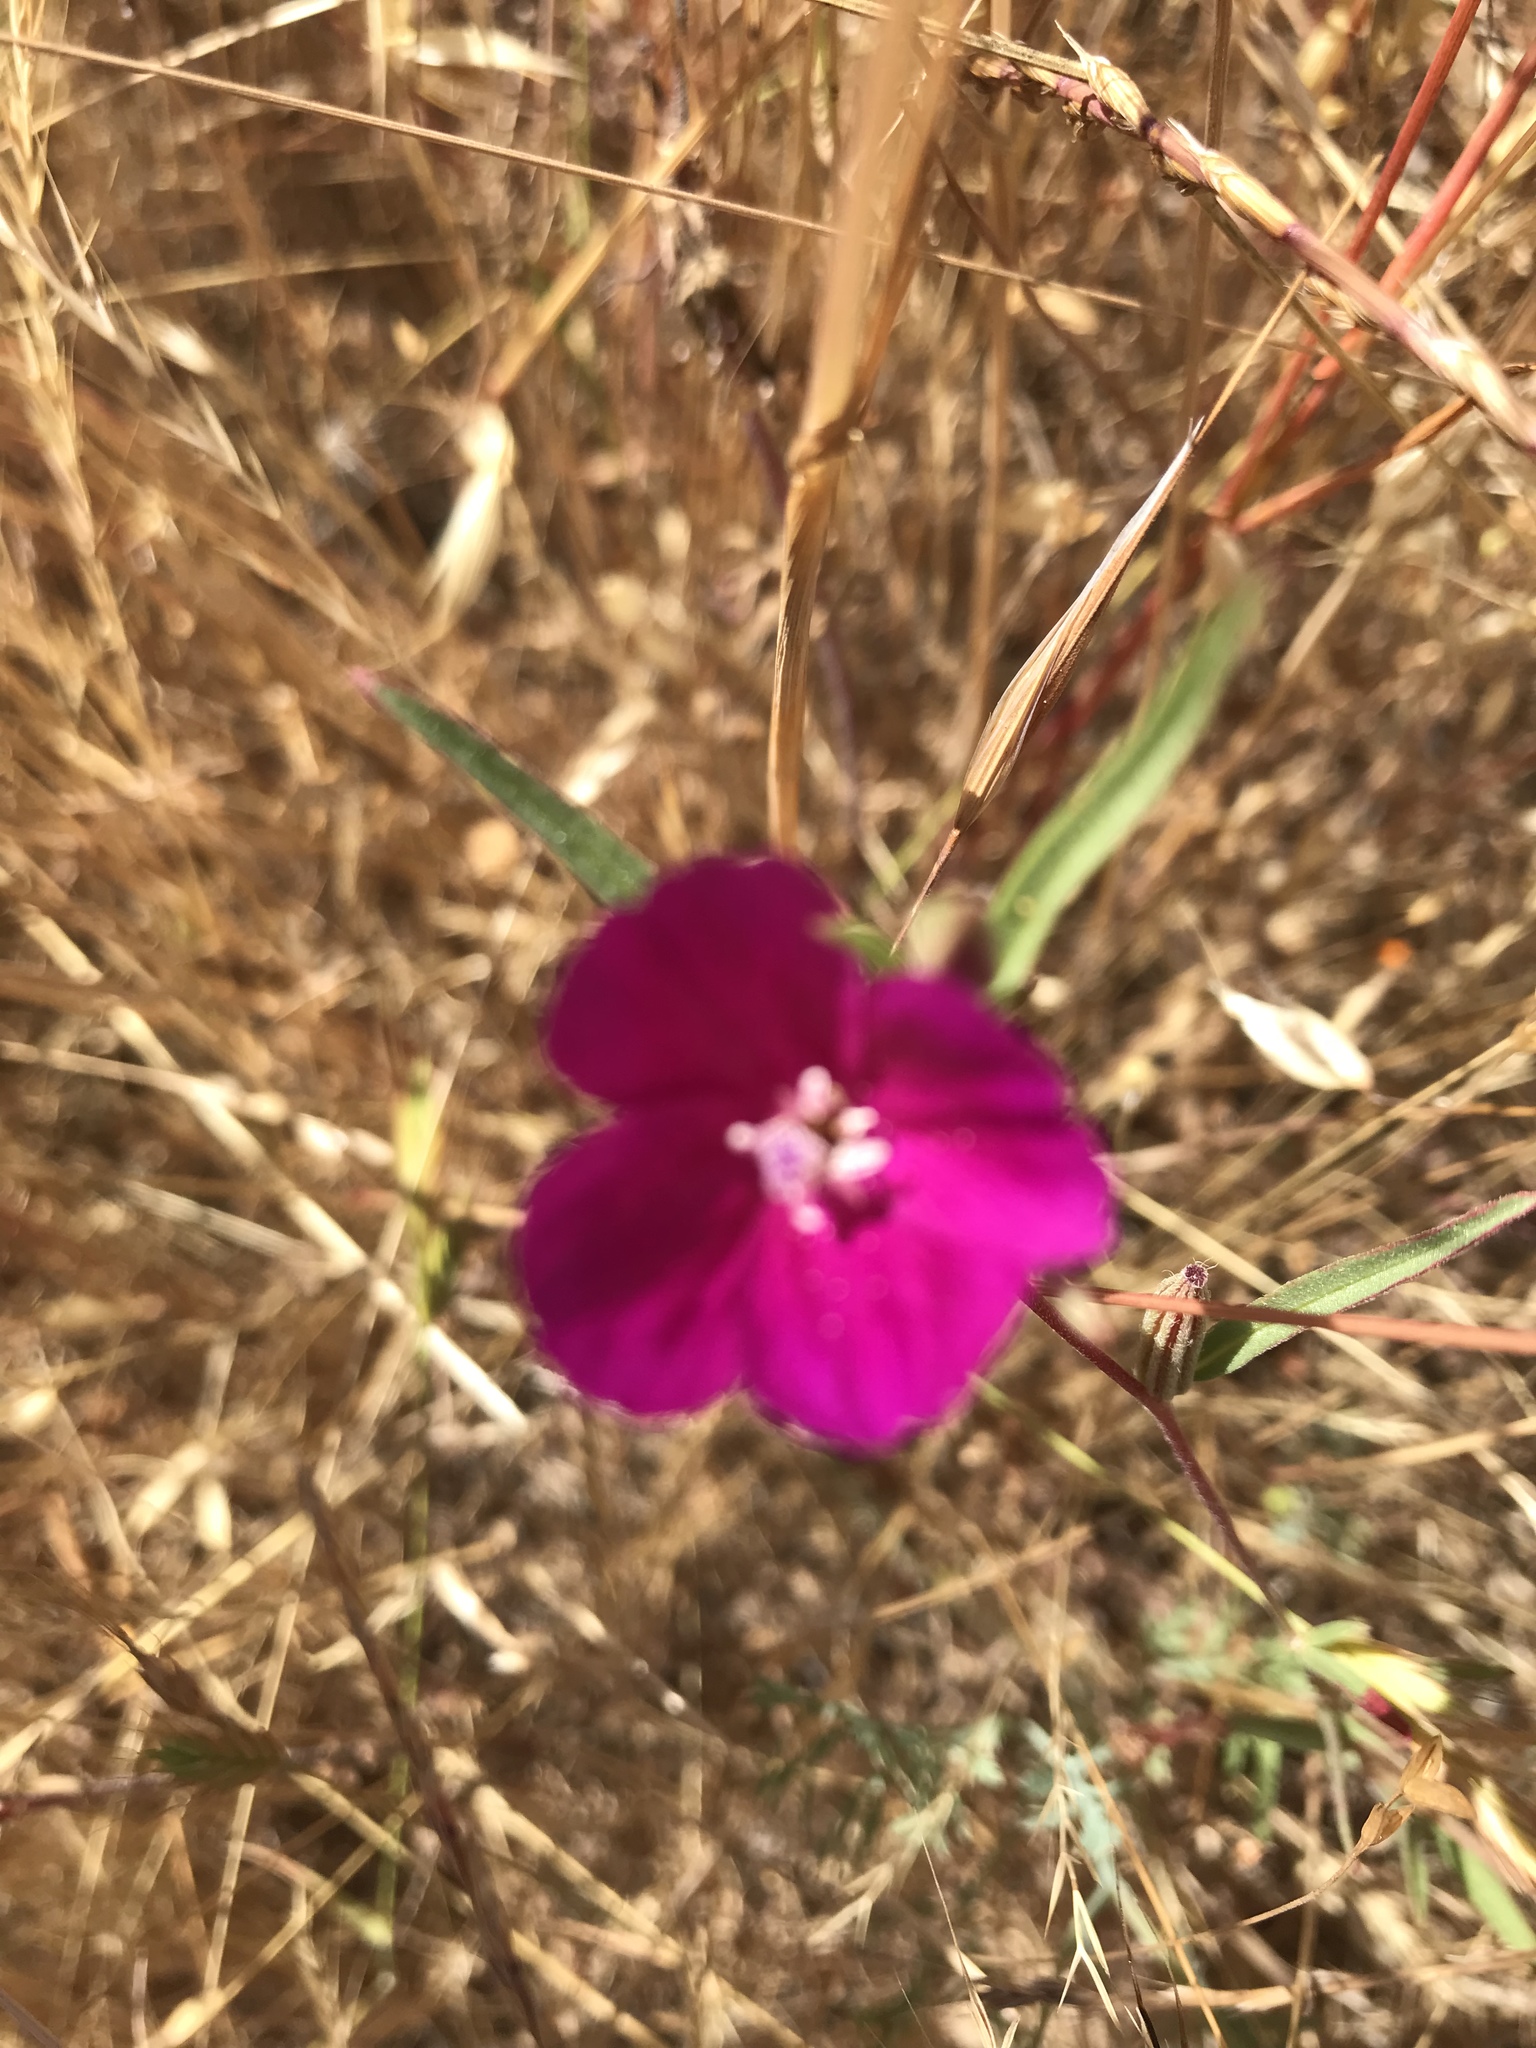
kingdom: Plantae
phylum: Tracheophyta
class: Magnoliopsida
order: Myrtales
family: Onagraceae
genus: Clarkia
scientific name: Clarkia purpurea
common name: Purple clarkia
